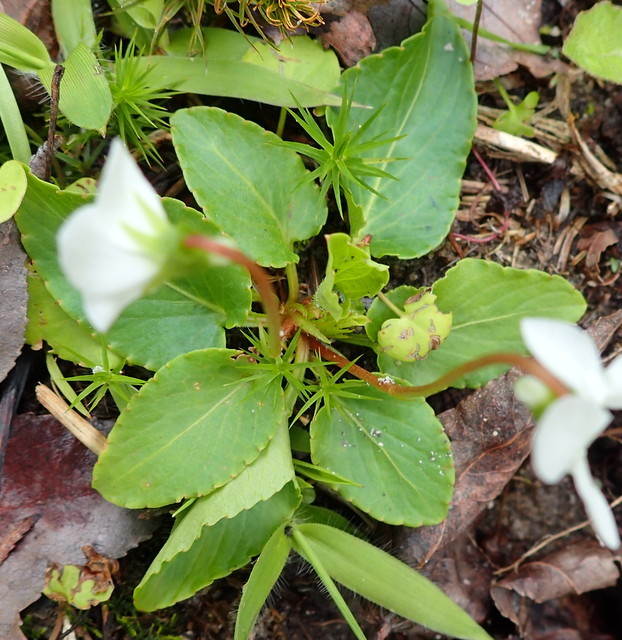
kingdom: Plantae
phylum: Tracheophyta
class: Magnoliopsida
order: Malpighiales
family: Violaceae
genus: Viola
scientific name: Viola primulifolia
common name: Primrose-leaf violet
